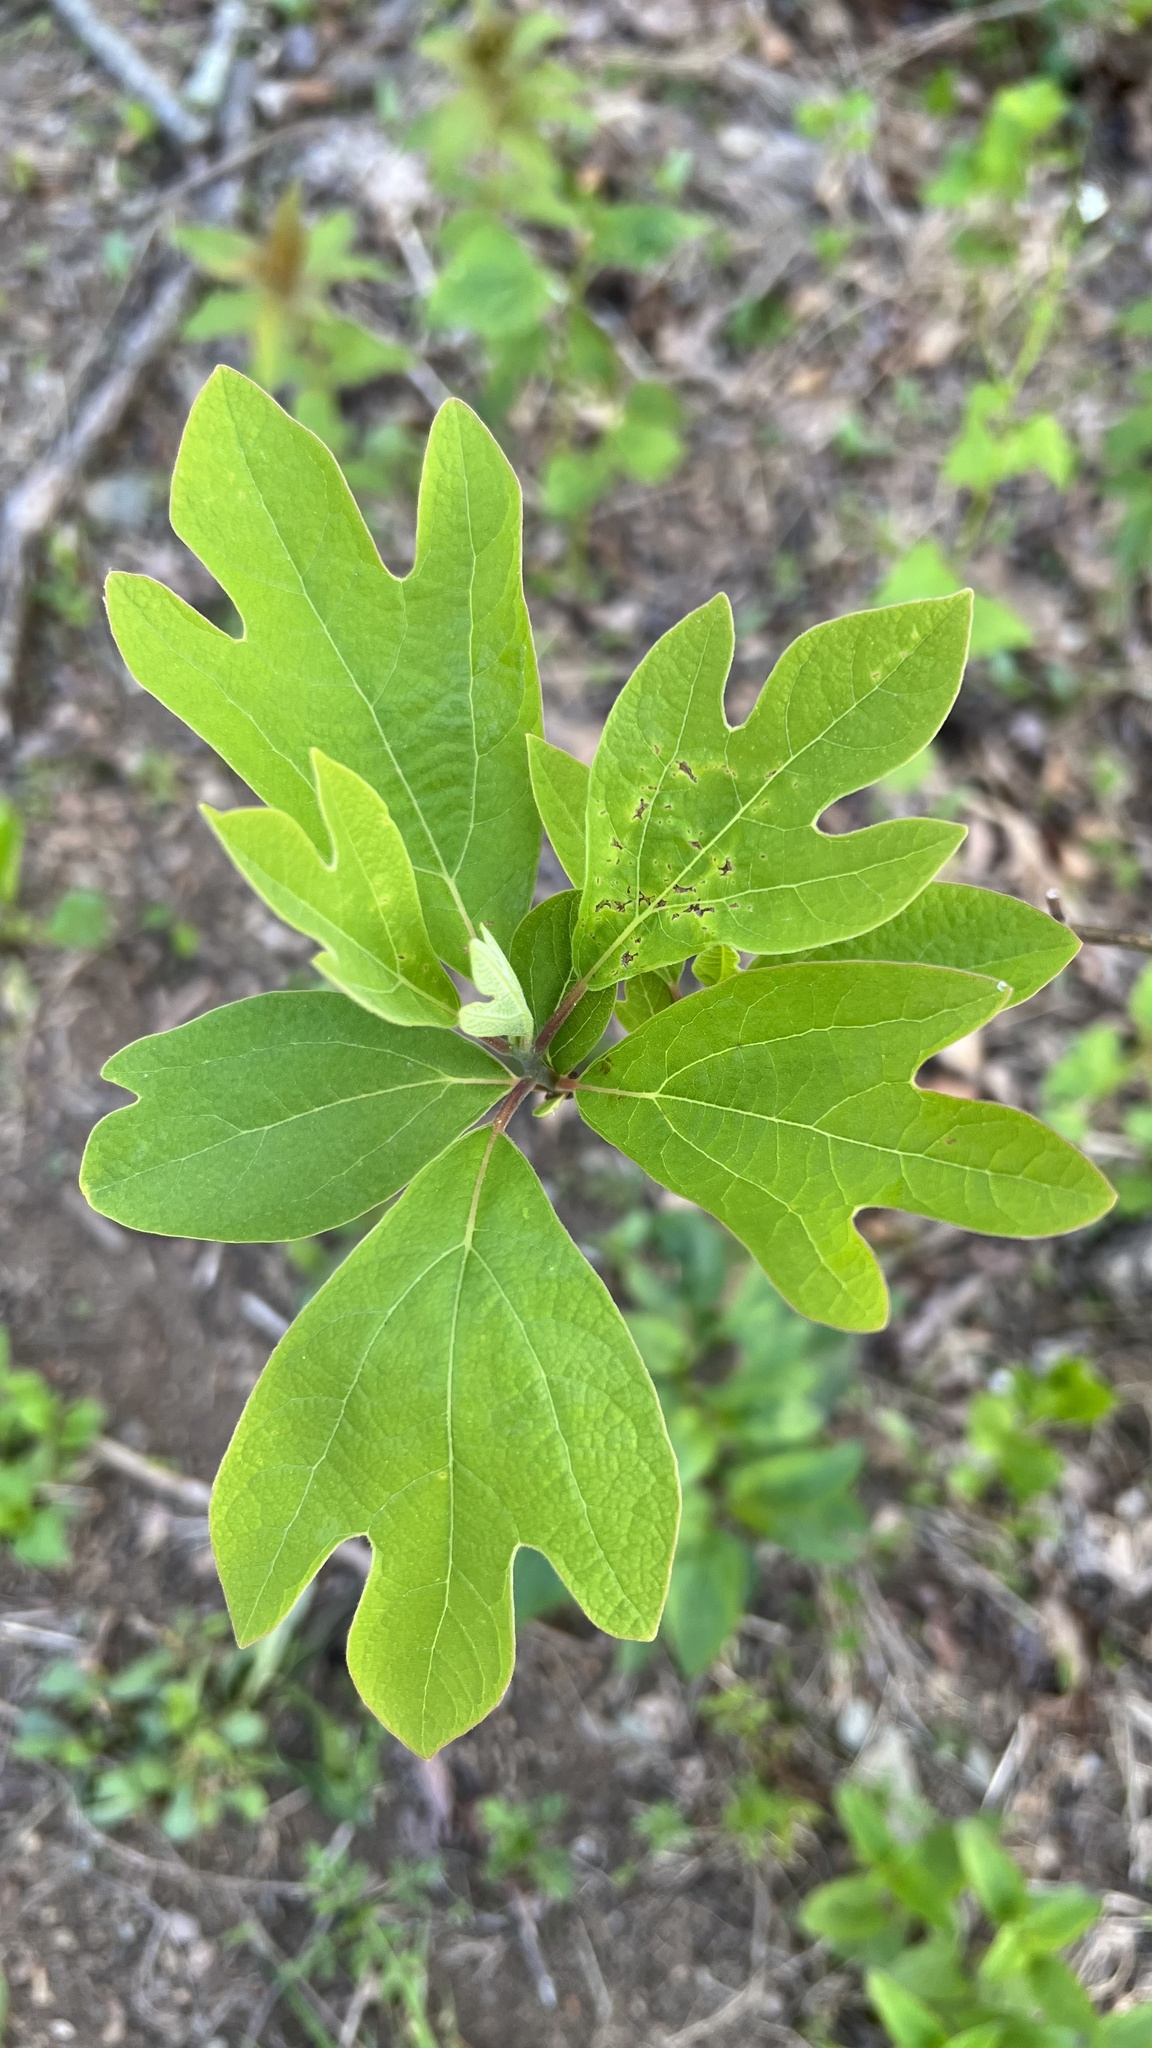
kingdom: Plantae
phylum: Tracheophyta
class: Magnoliopsida
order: Laurales
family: Lauraceae
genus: Sassafras
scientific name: Sassafras albidum
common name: Sassafras
